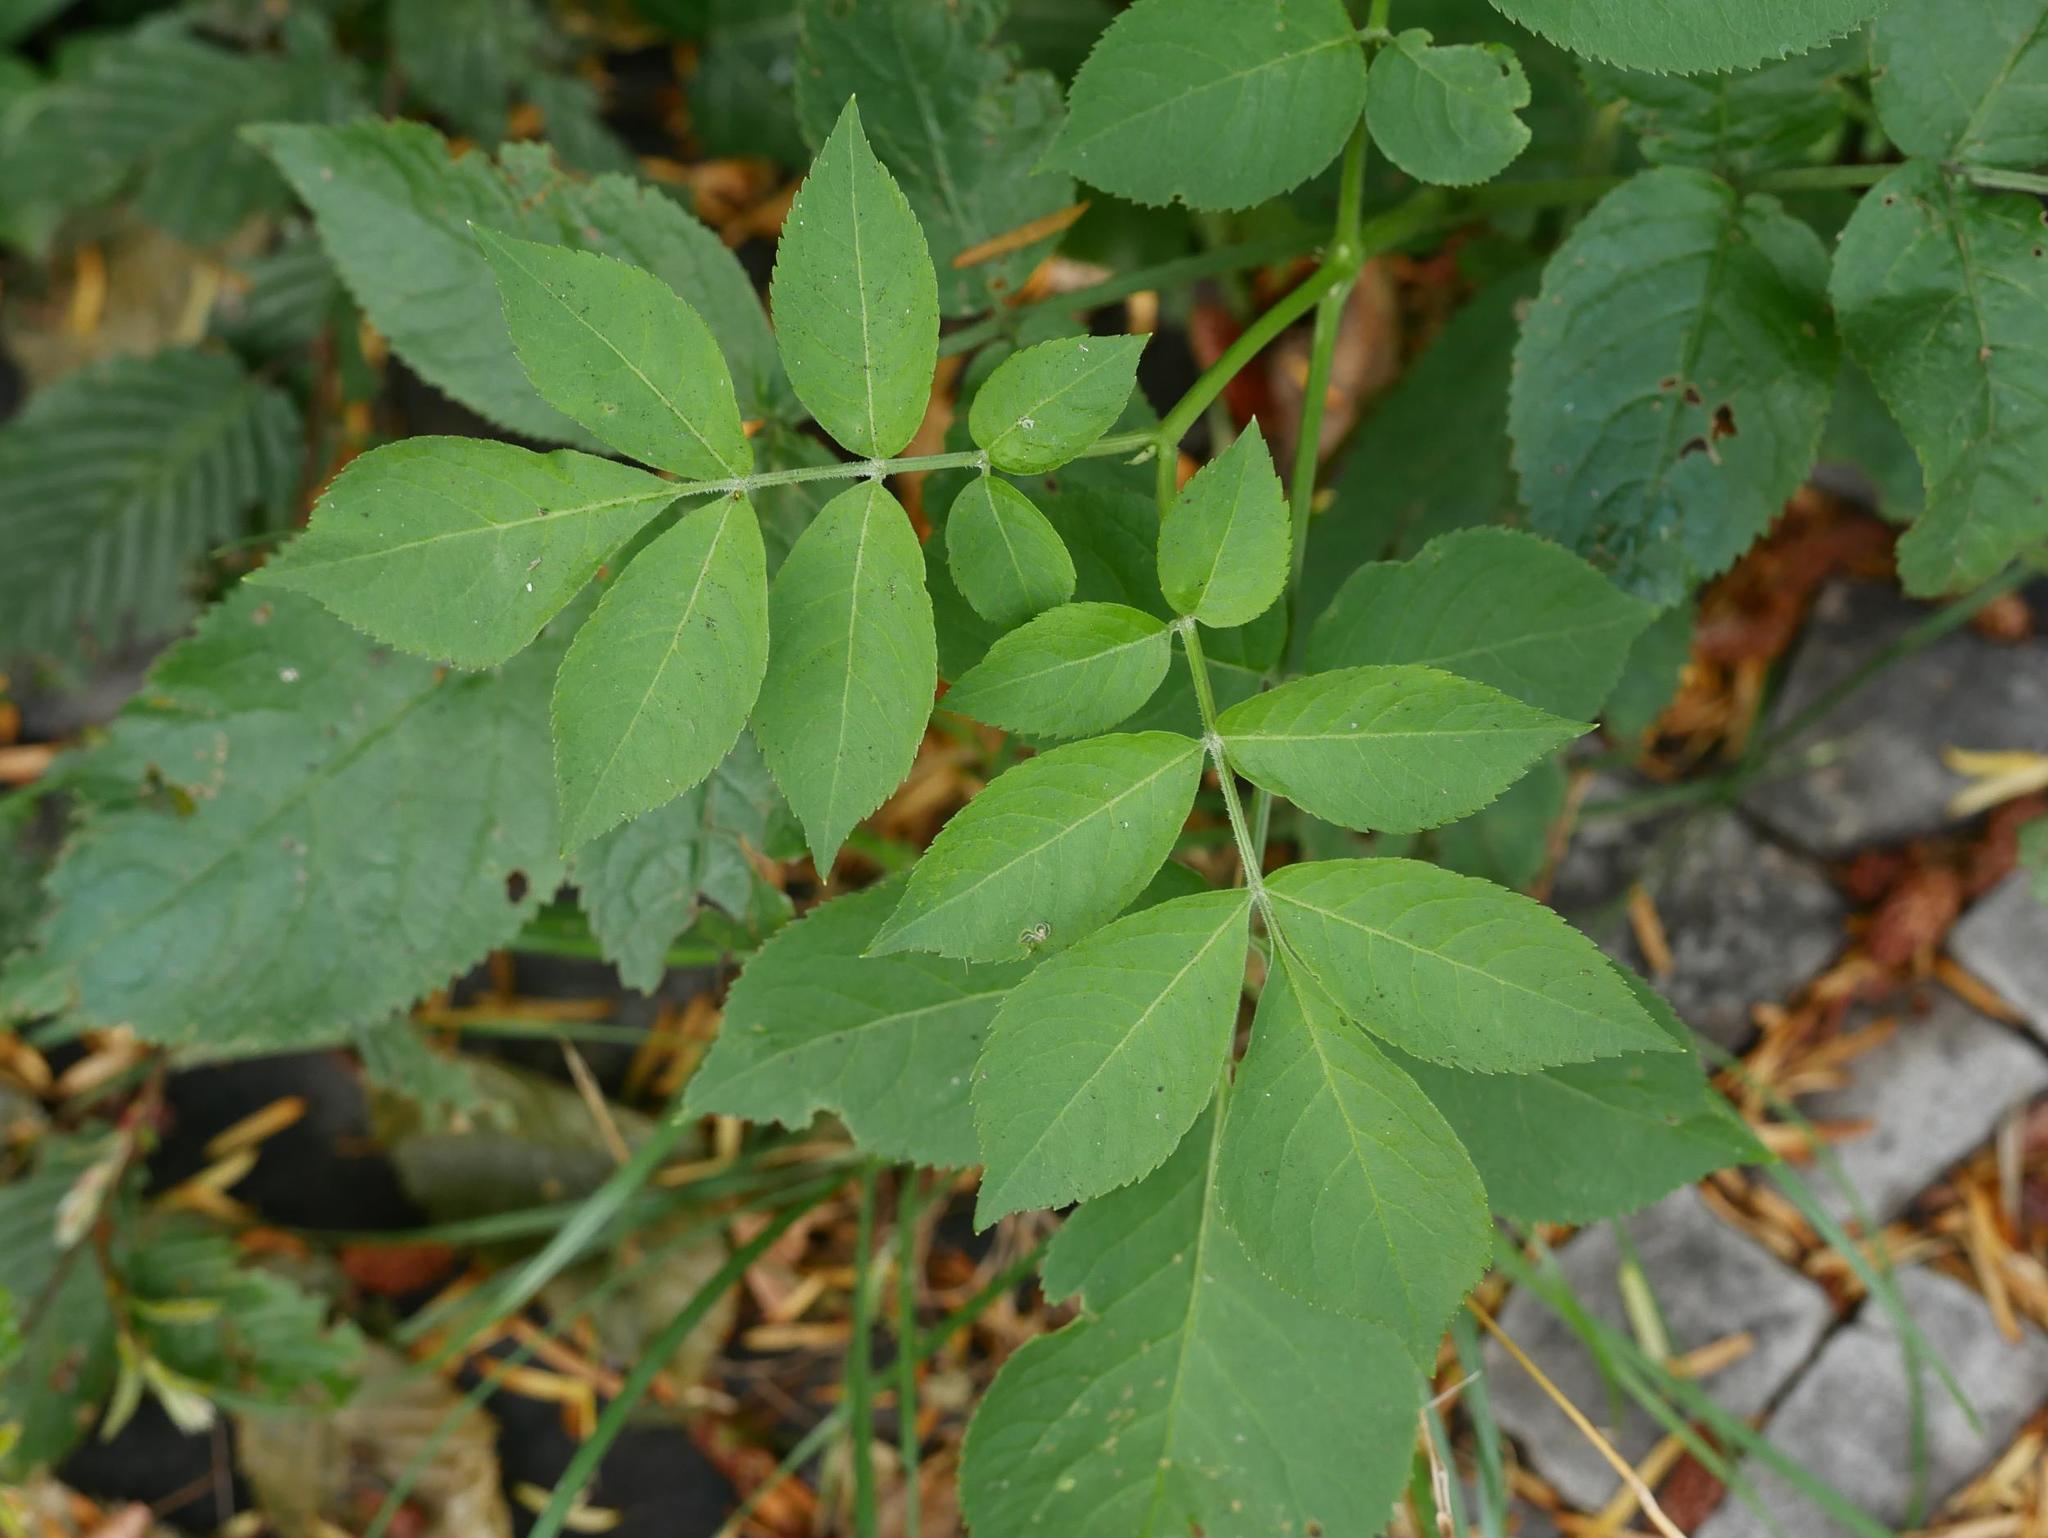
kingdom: Plantae
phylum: Tracheophyta
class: Magnoliopsida
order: Dipsacales
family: Viburnaceae
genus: Sambucus
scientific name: Sambucus nigra
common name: Elder
